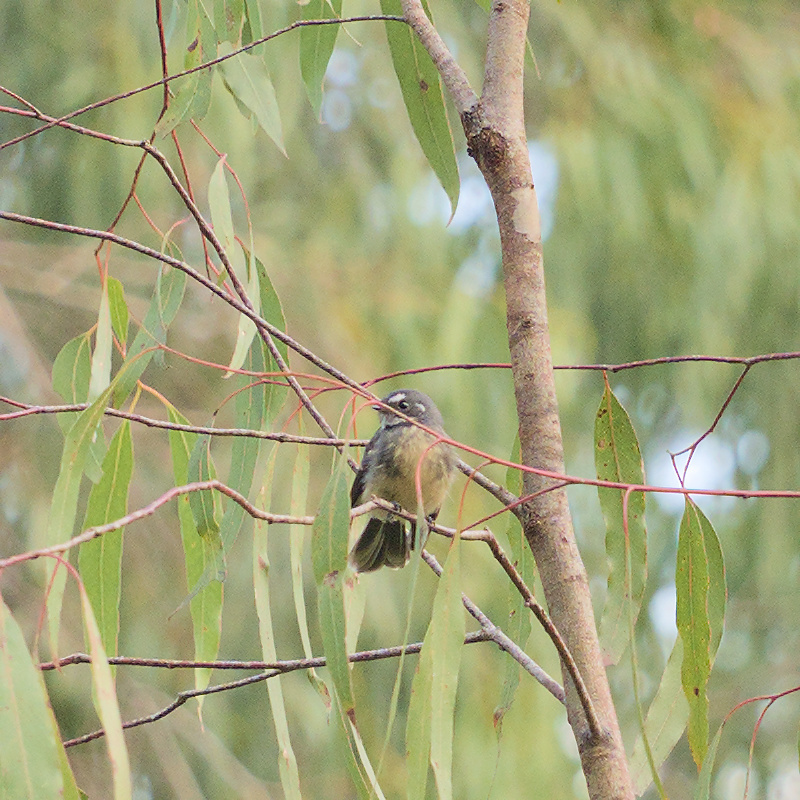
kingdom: Animalia
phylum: Chordata
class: Aves
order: Passeriformes
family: Rhipiduridae
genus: Rhipidura
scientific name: Rhipidura albiscapa
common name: Grey fantail
